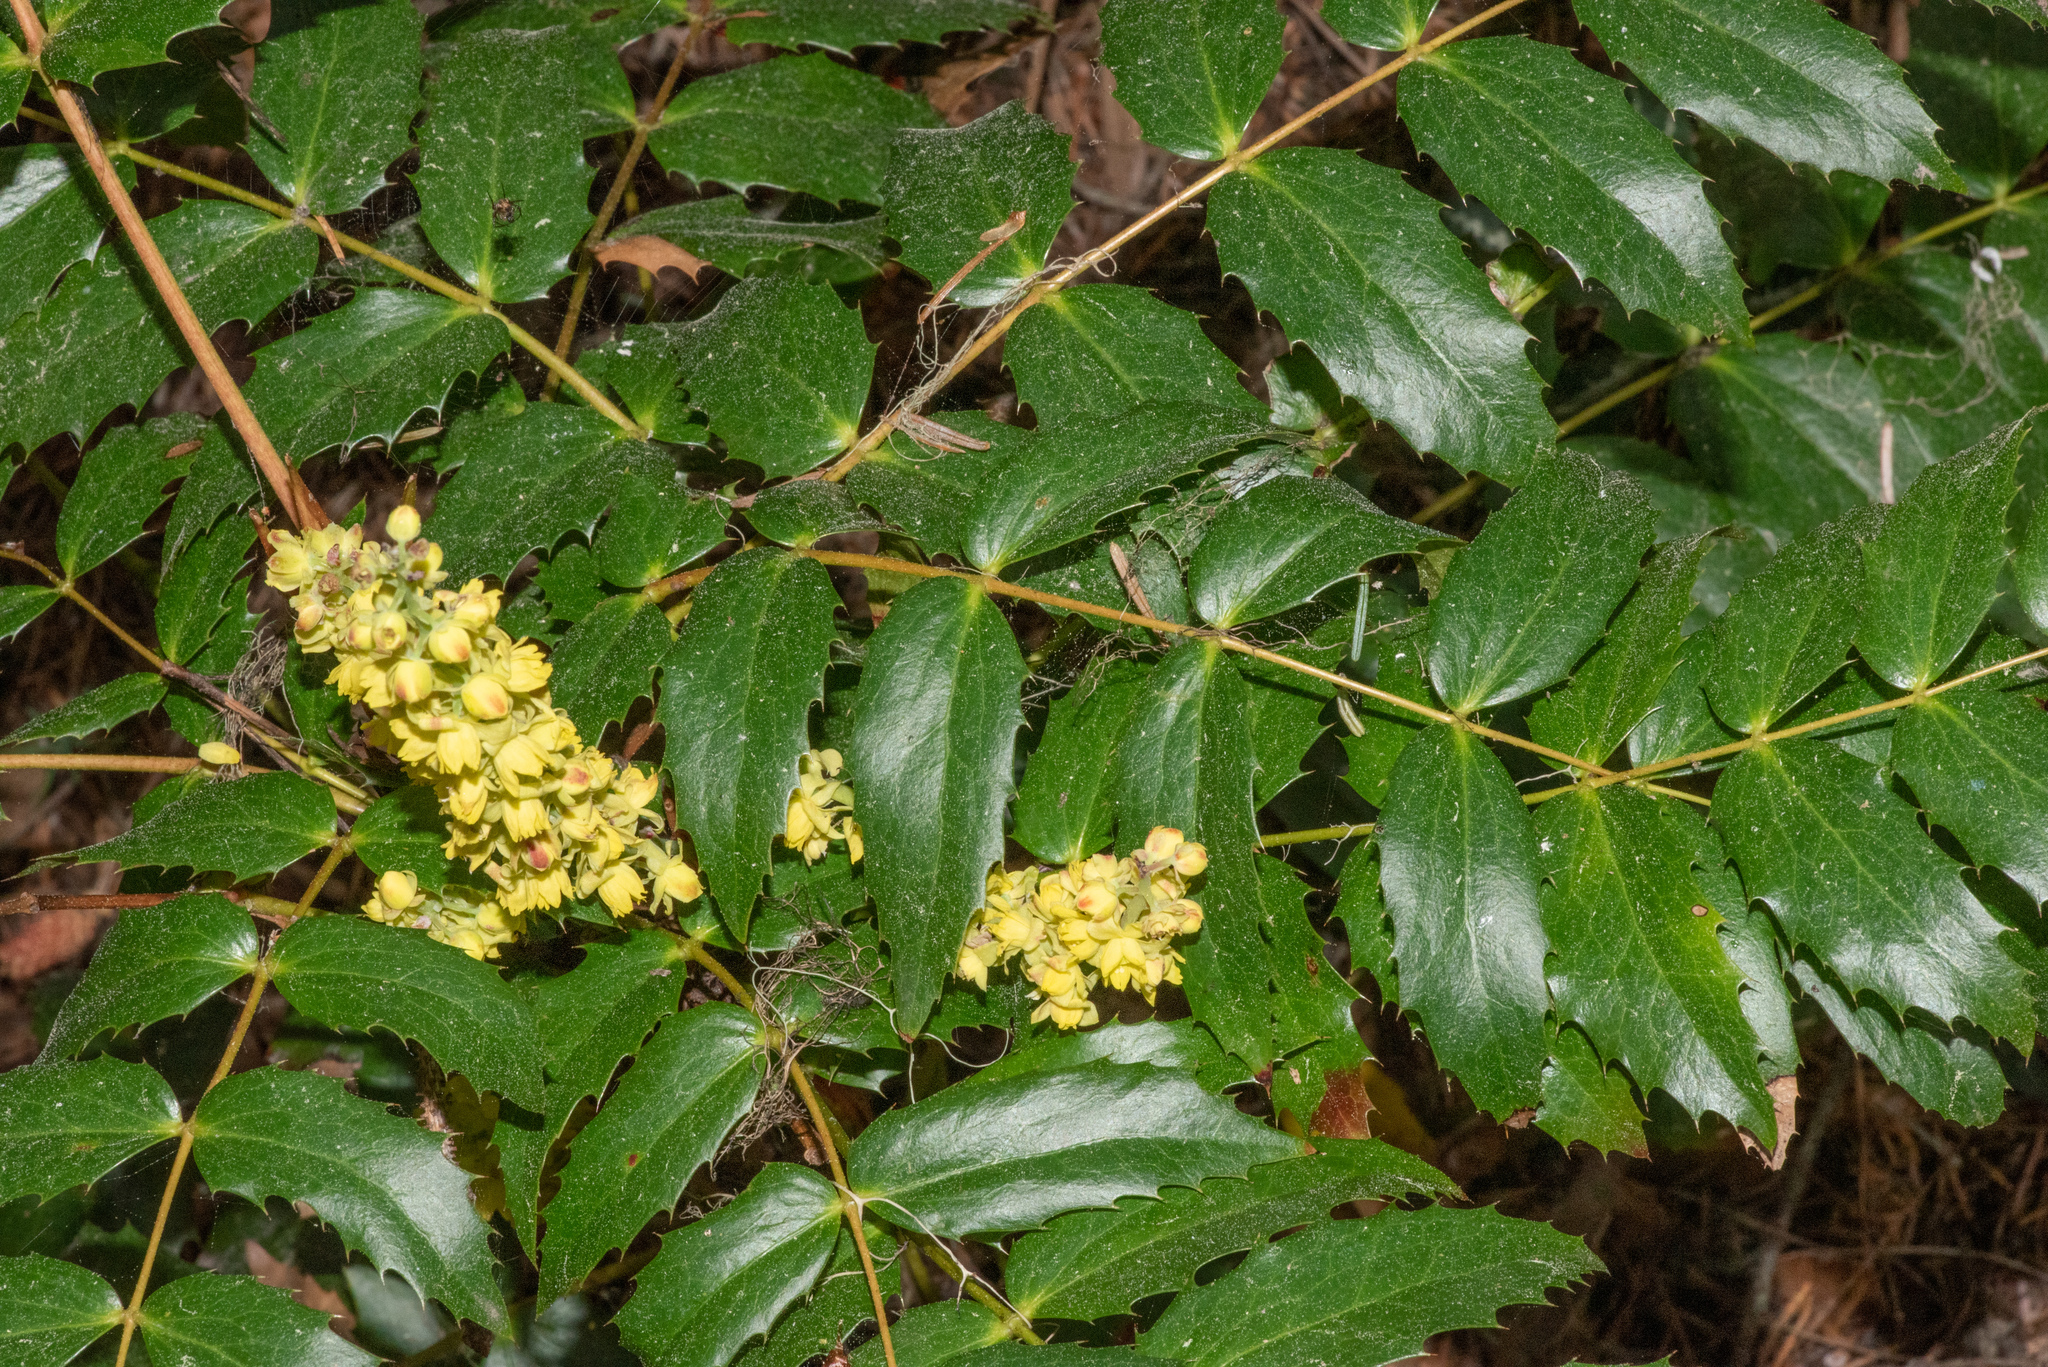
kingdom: Plantae
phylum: Tracheophyta
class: Magnoliopsida
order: Ranunculales
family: Berberidaceae
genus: Mahonia
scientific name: Mahonia nervosa
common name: Cascade oregon-grape
